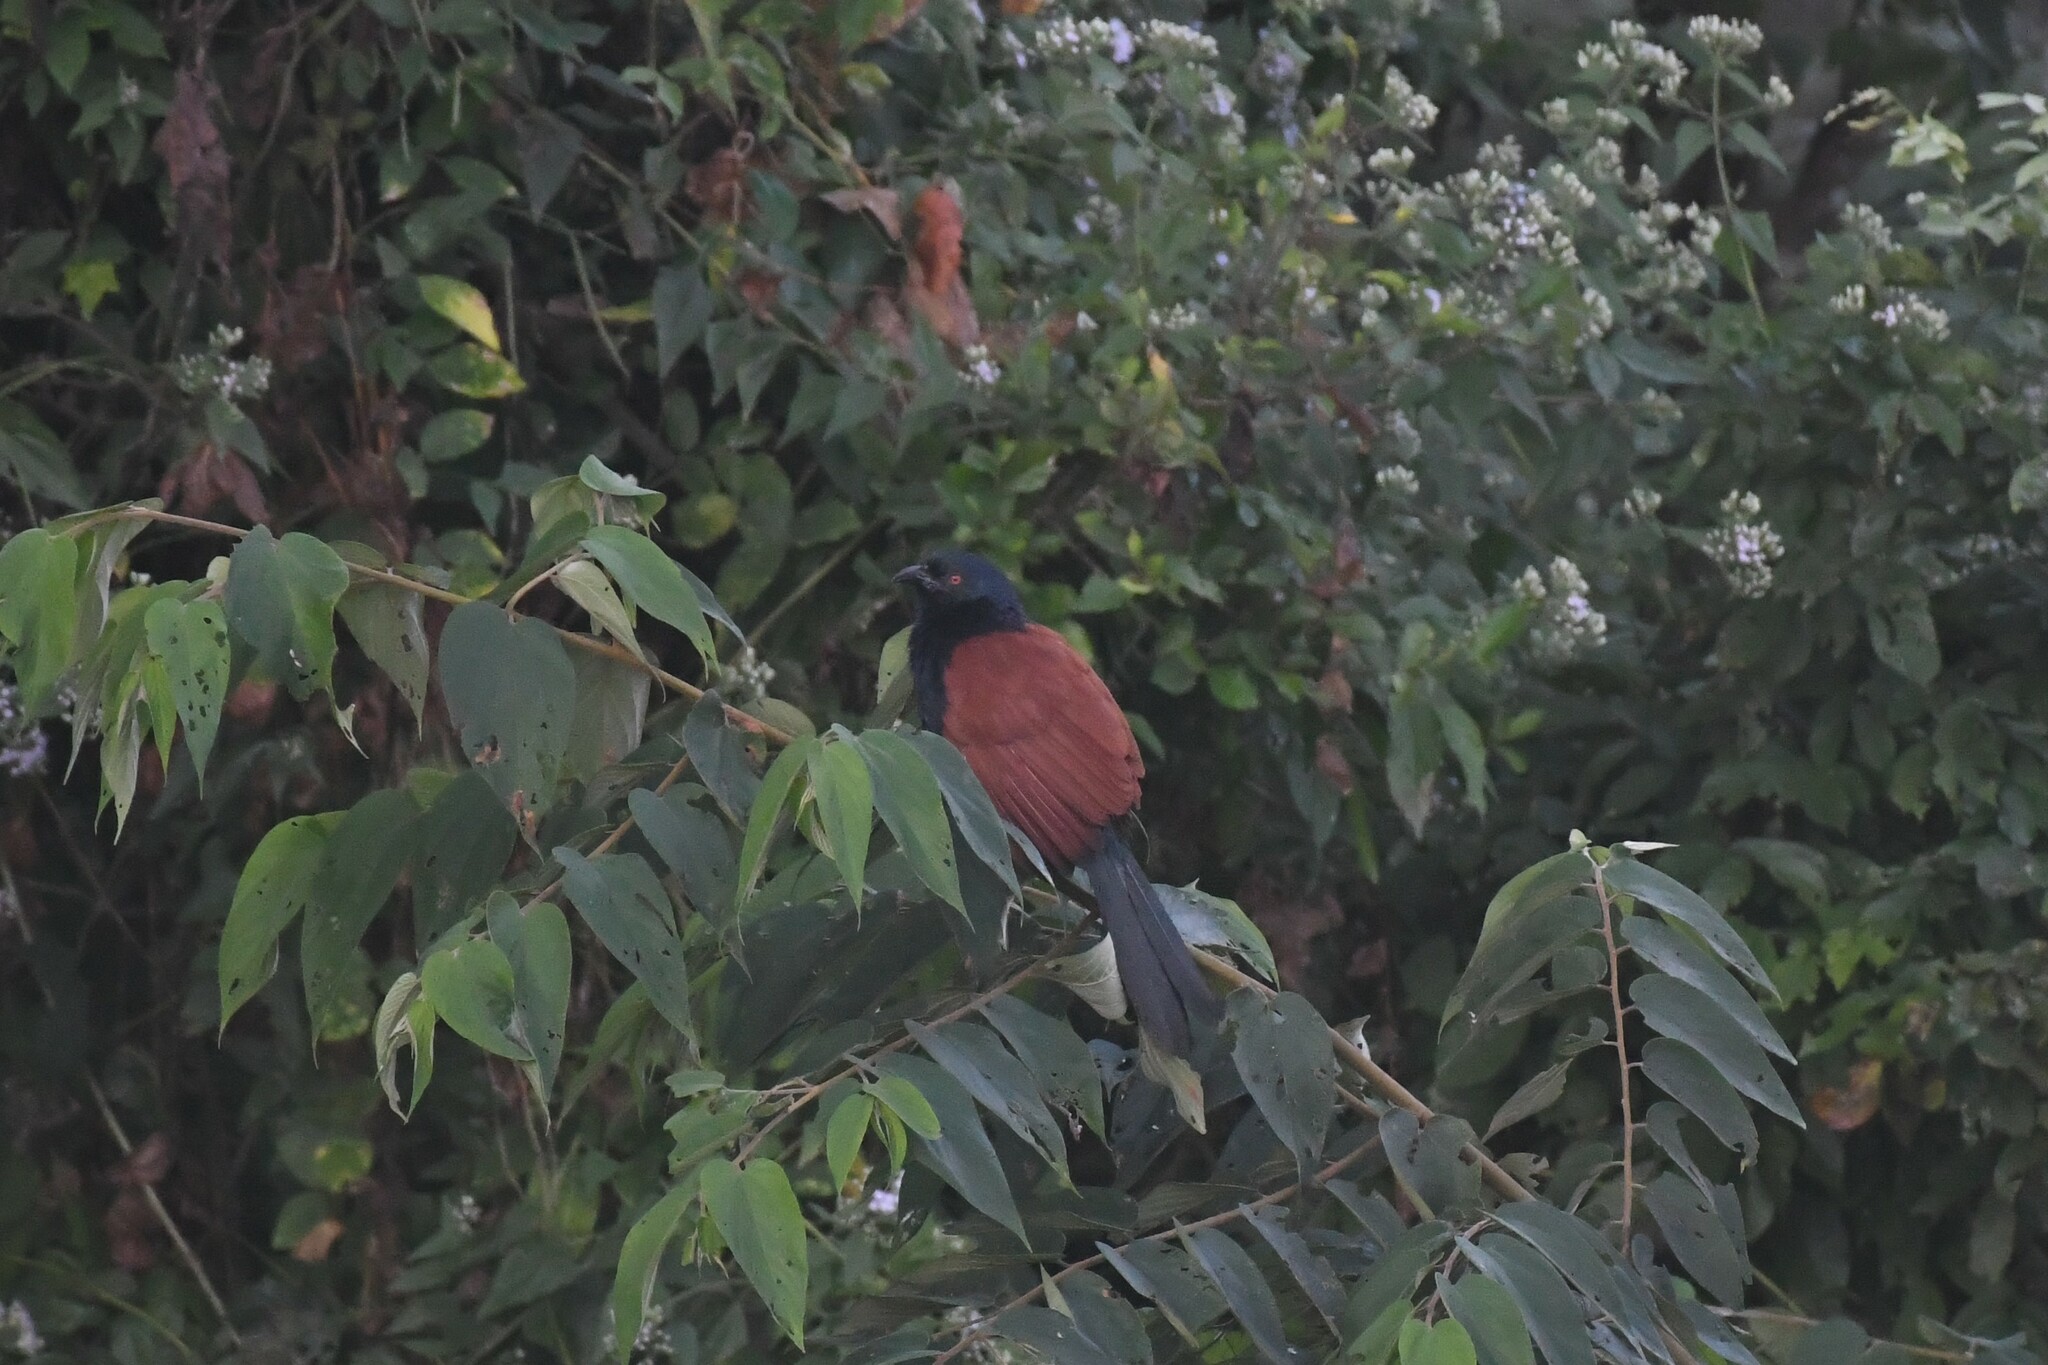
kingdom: Animalia
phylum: Chordata
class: Aves
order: Cuculiformes
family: Cuculidae
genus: Centropus
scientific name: Centropus sinensis
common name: Greater coucal
